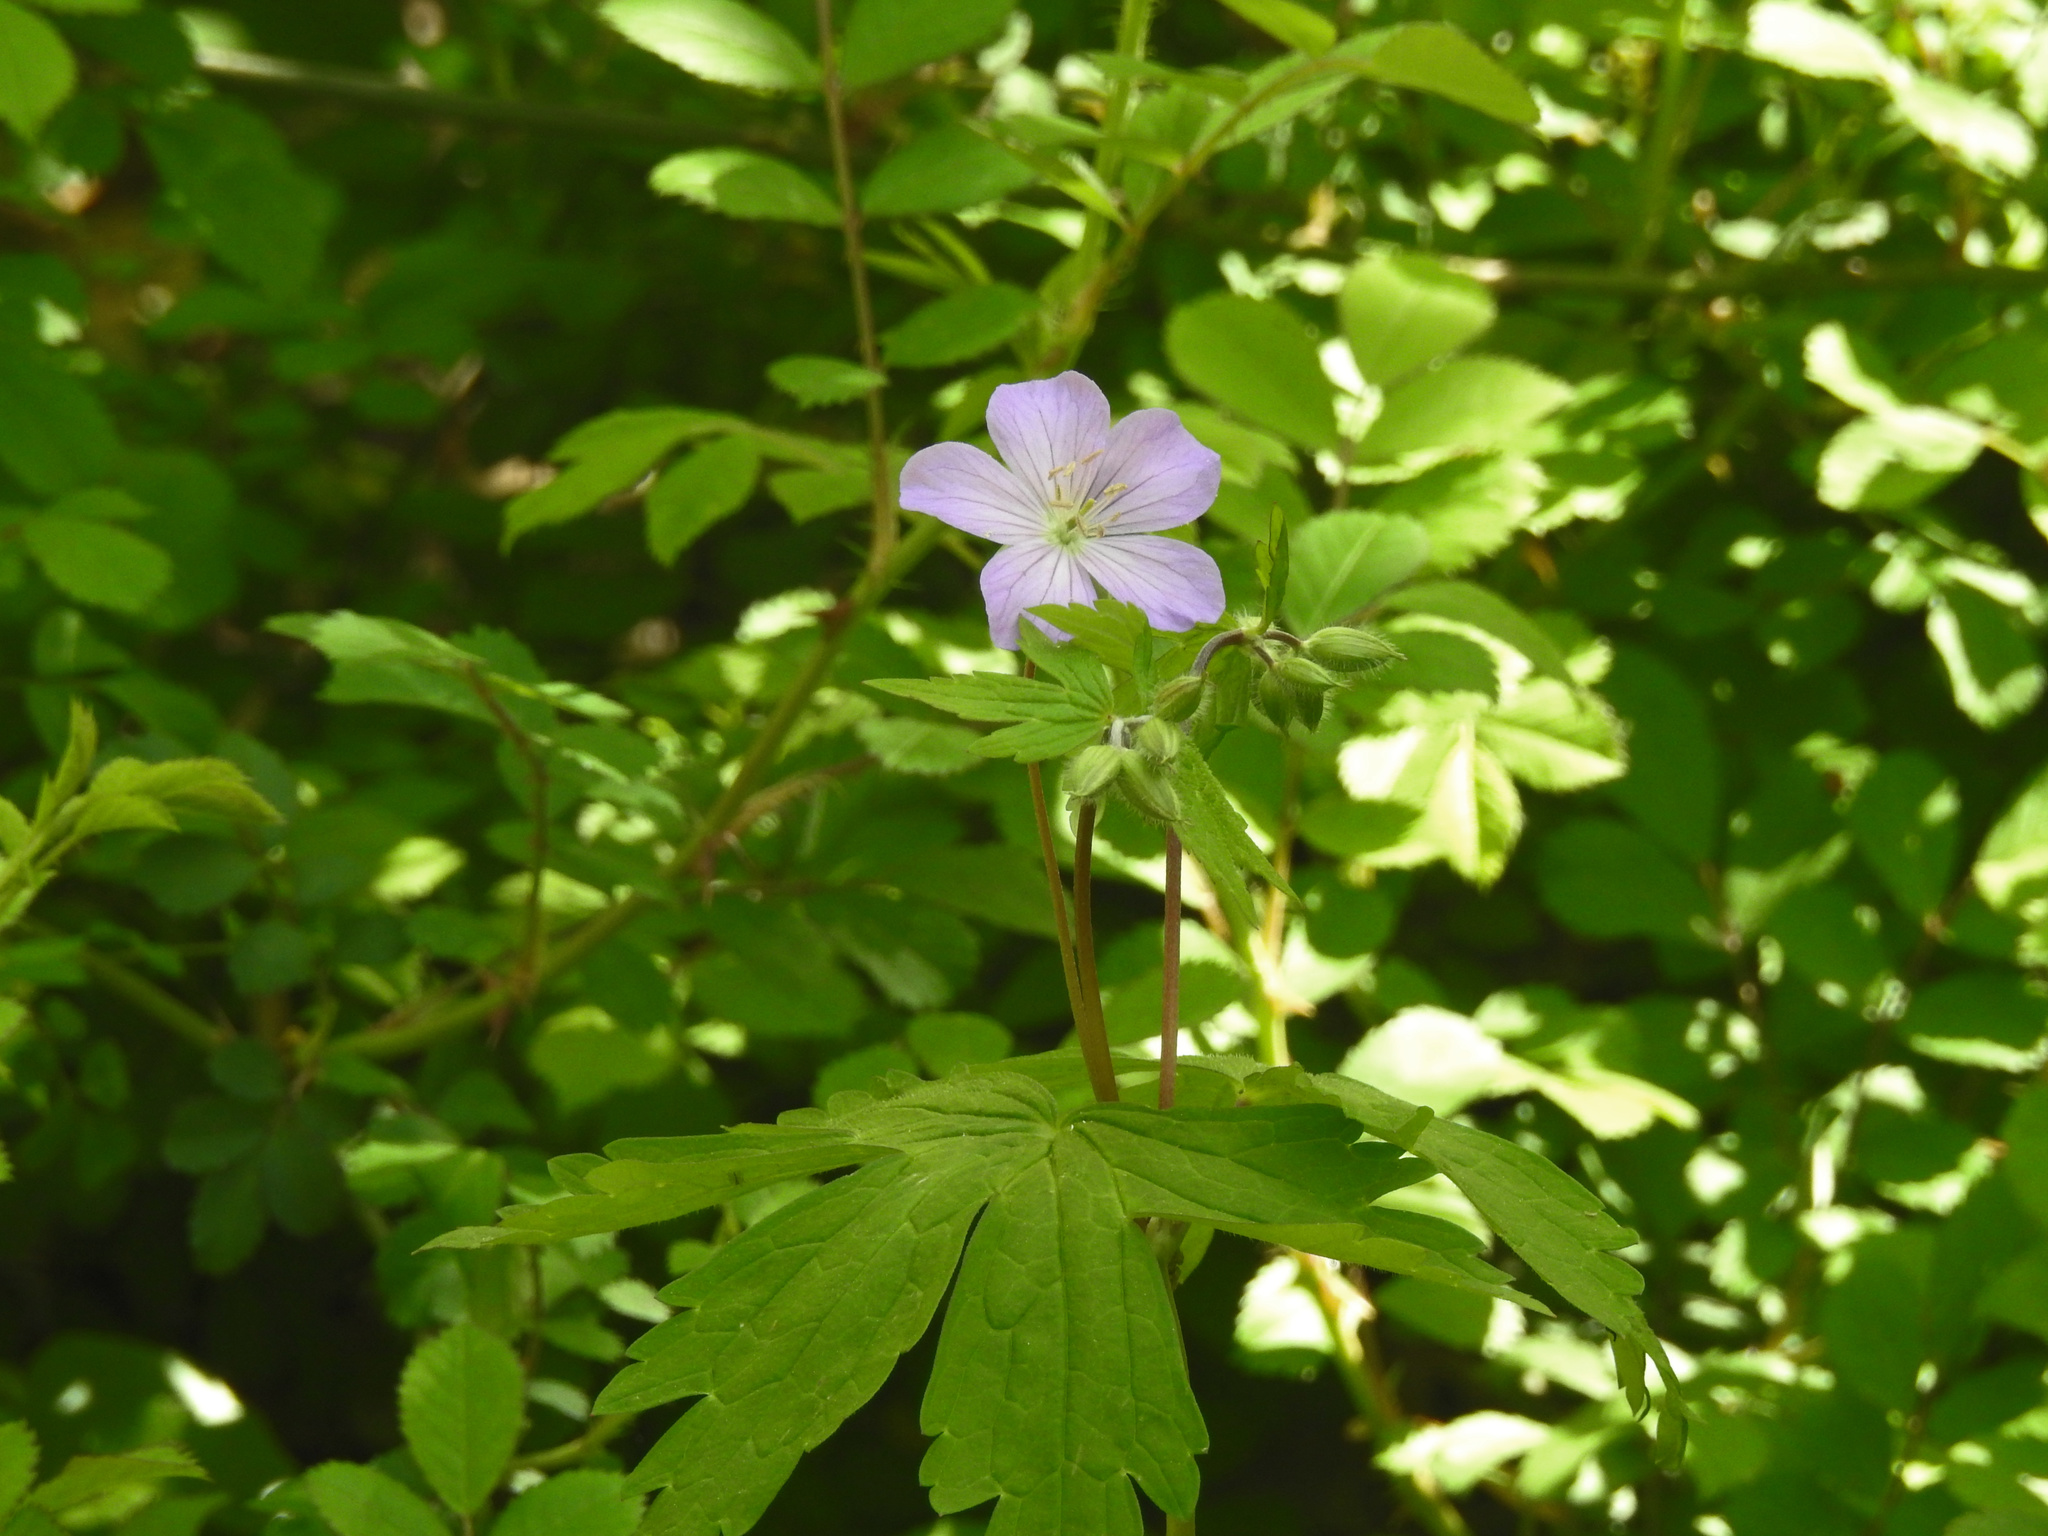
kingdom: Plantae
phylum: Tracheophyta
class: Magnoliopsida
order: Geraniales
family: Geraniaceae
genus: Geranium
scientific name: Geranium maculatum
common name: Spotted geranium
